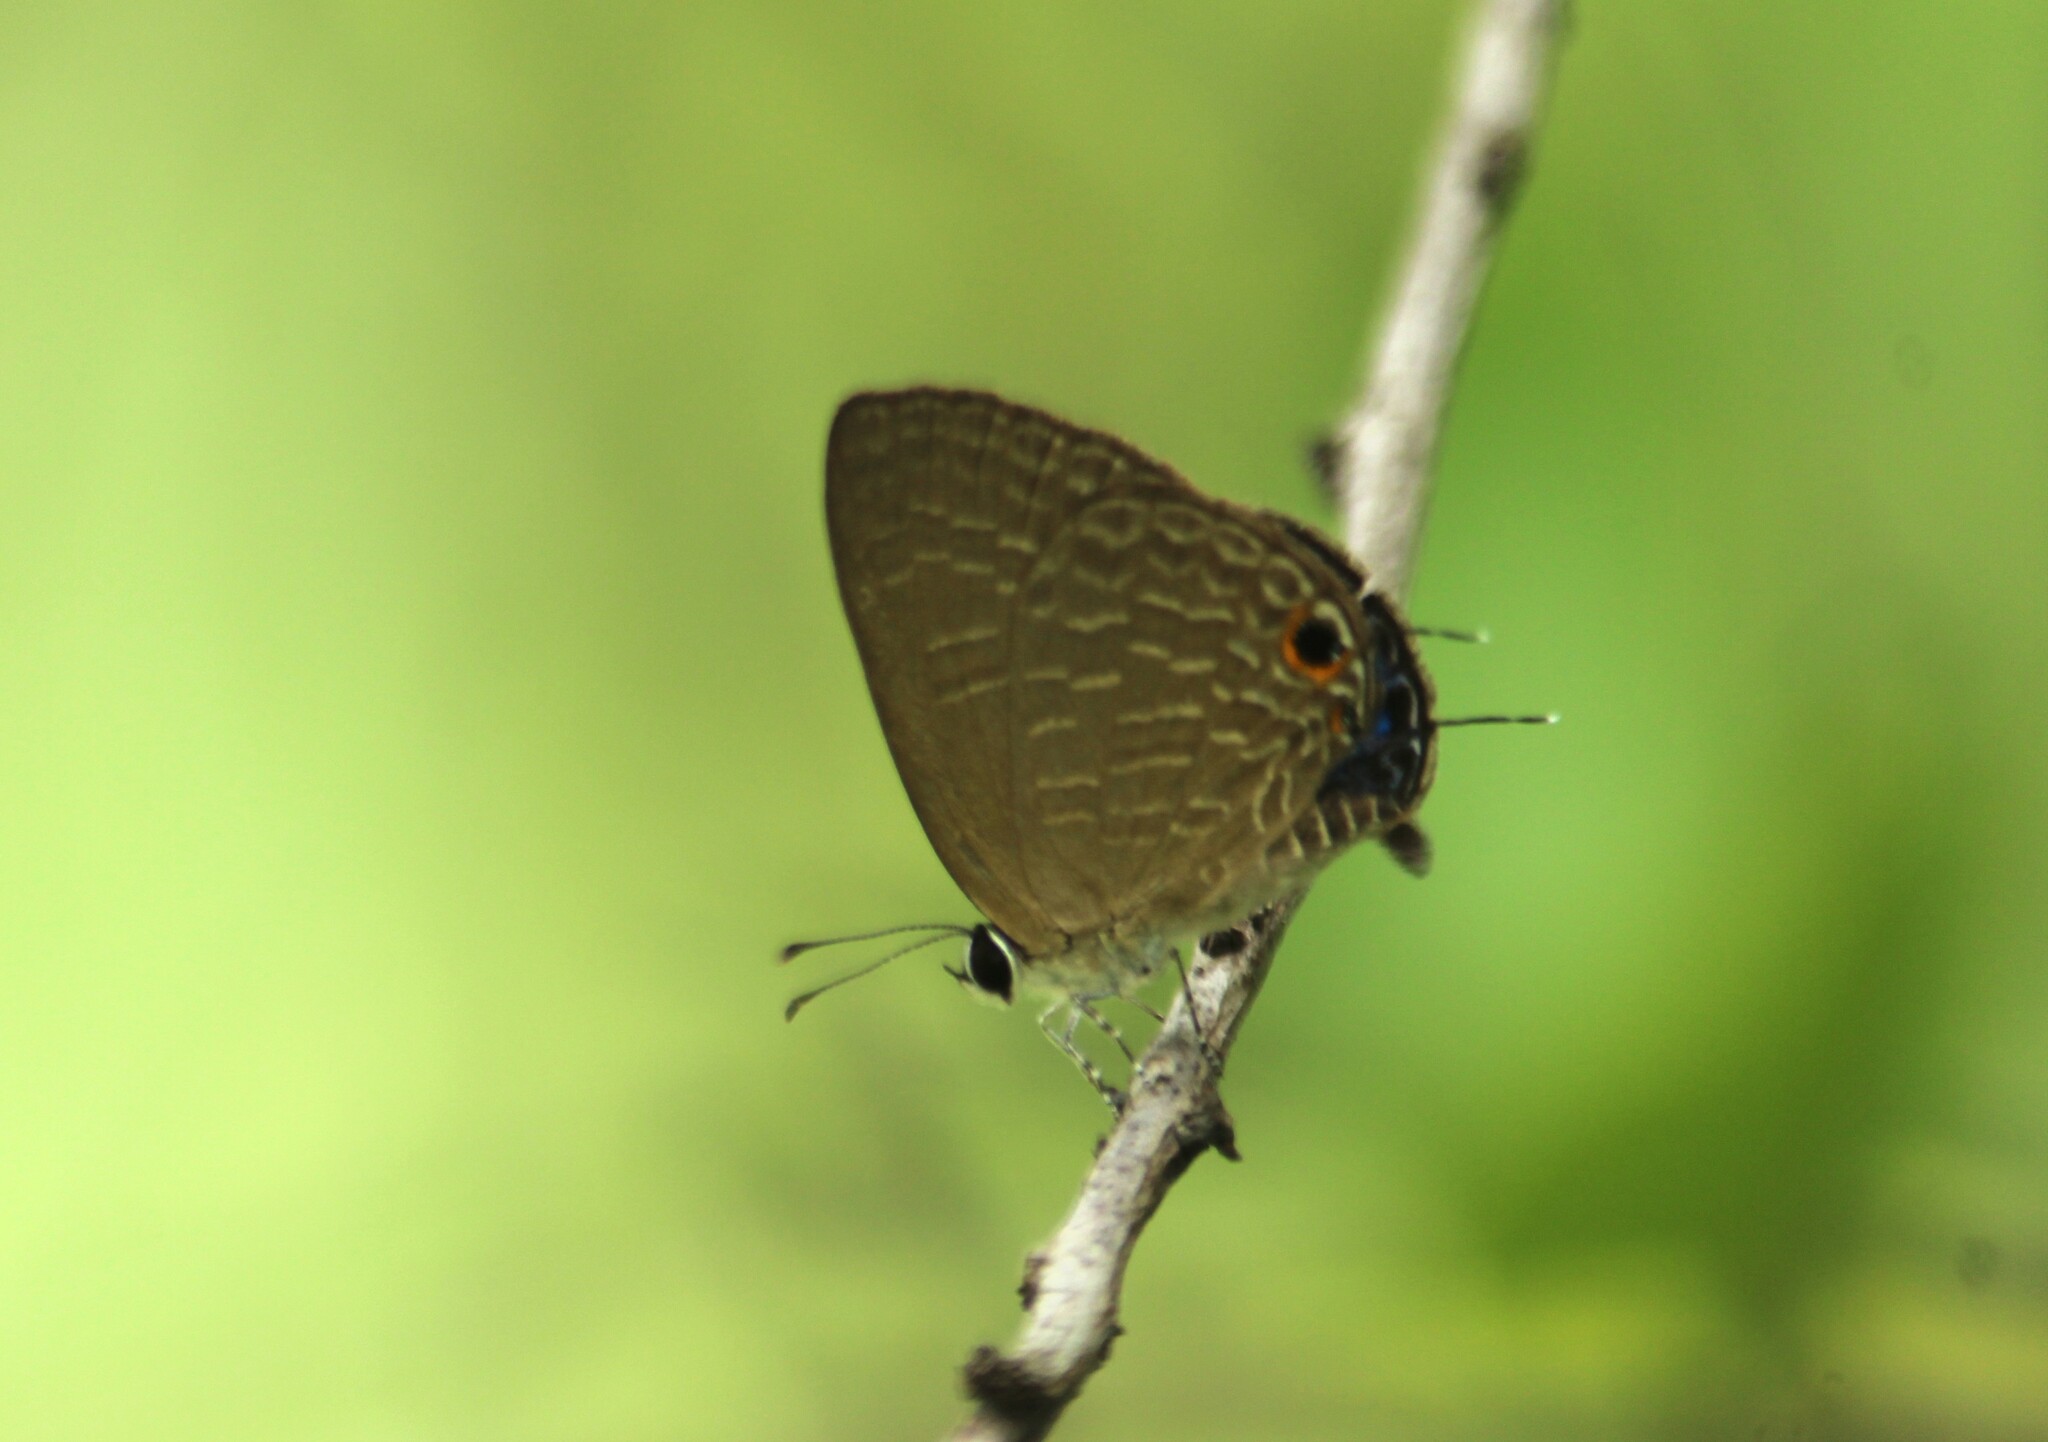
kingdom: Animalia
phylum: Arthropoda
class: Insecta
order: Lepidoptera
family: Lycaenidae
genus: Jamides
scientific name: Jamides bochus
